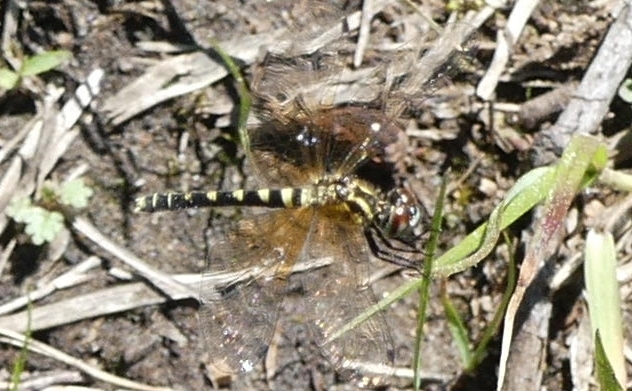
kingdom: Animalia
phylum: Arthropoda
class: Insecta
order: Odonata
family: Libellulidae
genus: Nannothemis
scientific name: Nannothemis bella
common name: Elfin skimmer
